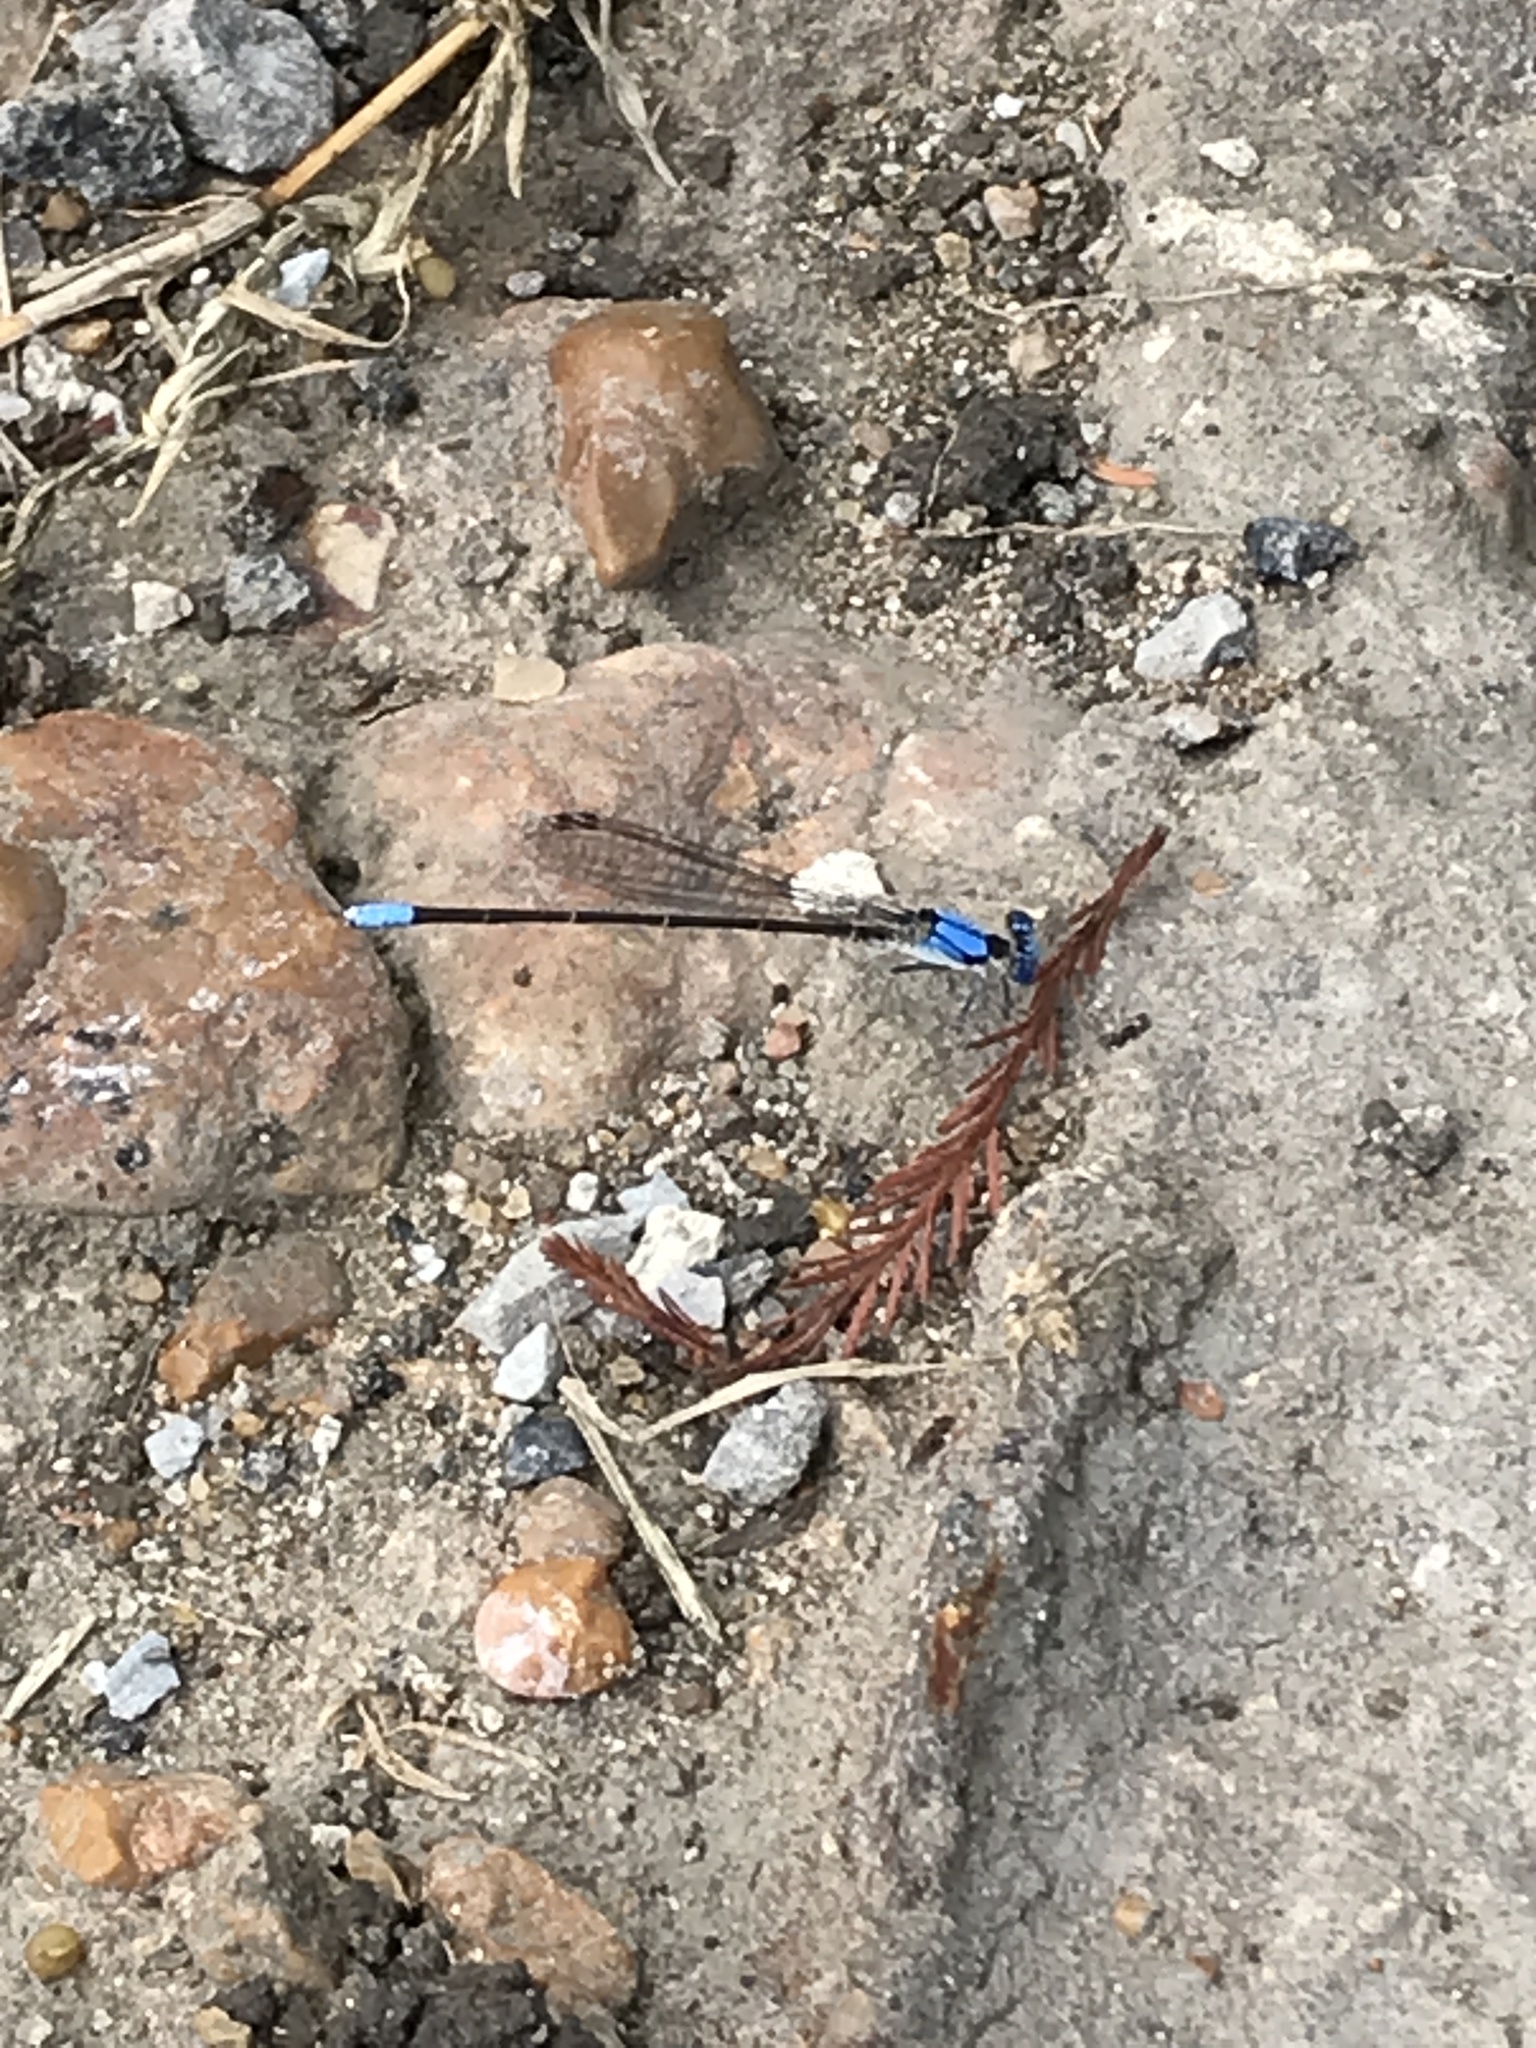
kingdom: Animalia
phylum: Arthropoda
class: Insecta
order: Odonata
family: Coenagrionidae
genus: Argia
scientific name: Argia apicalis
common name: Blue-fronted dancer
